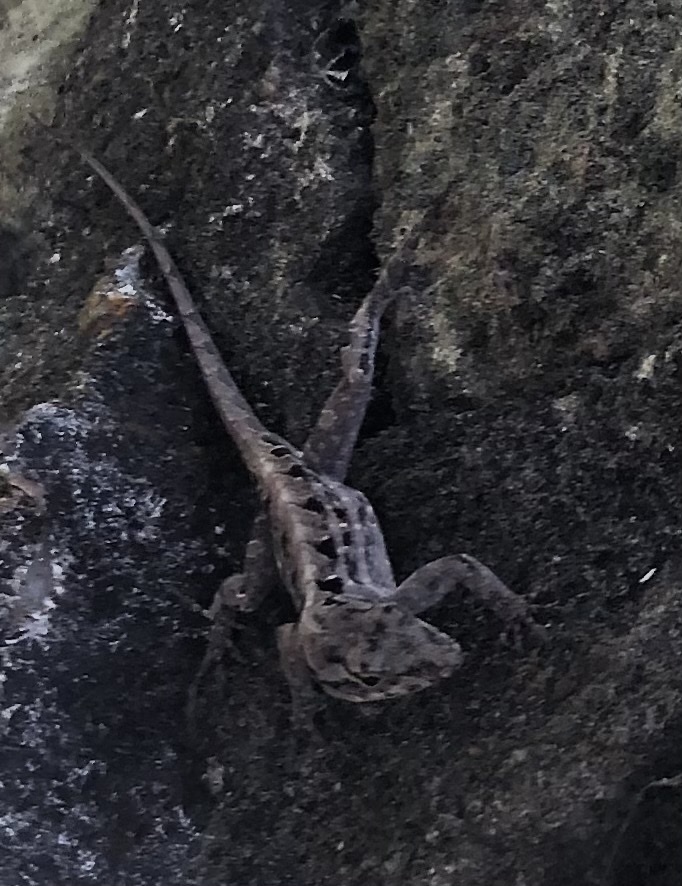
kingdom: Animalia
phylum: Chordata
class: Squamata
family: Dactyloidae
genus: Anolis
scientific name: Anolis sagrei
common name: Brown anole
